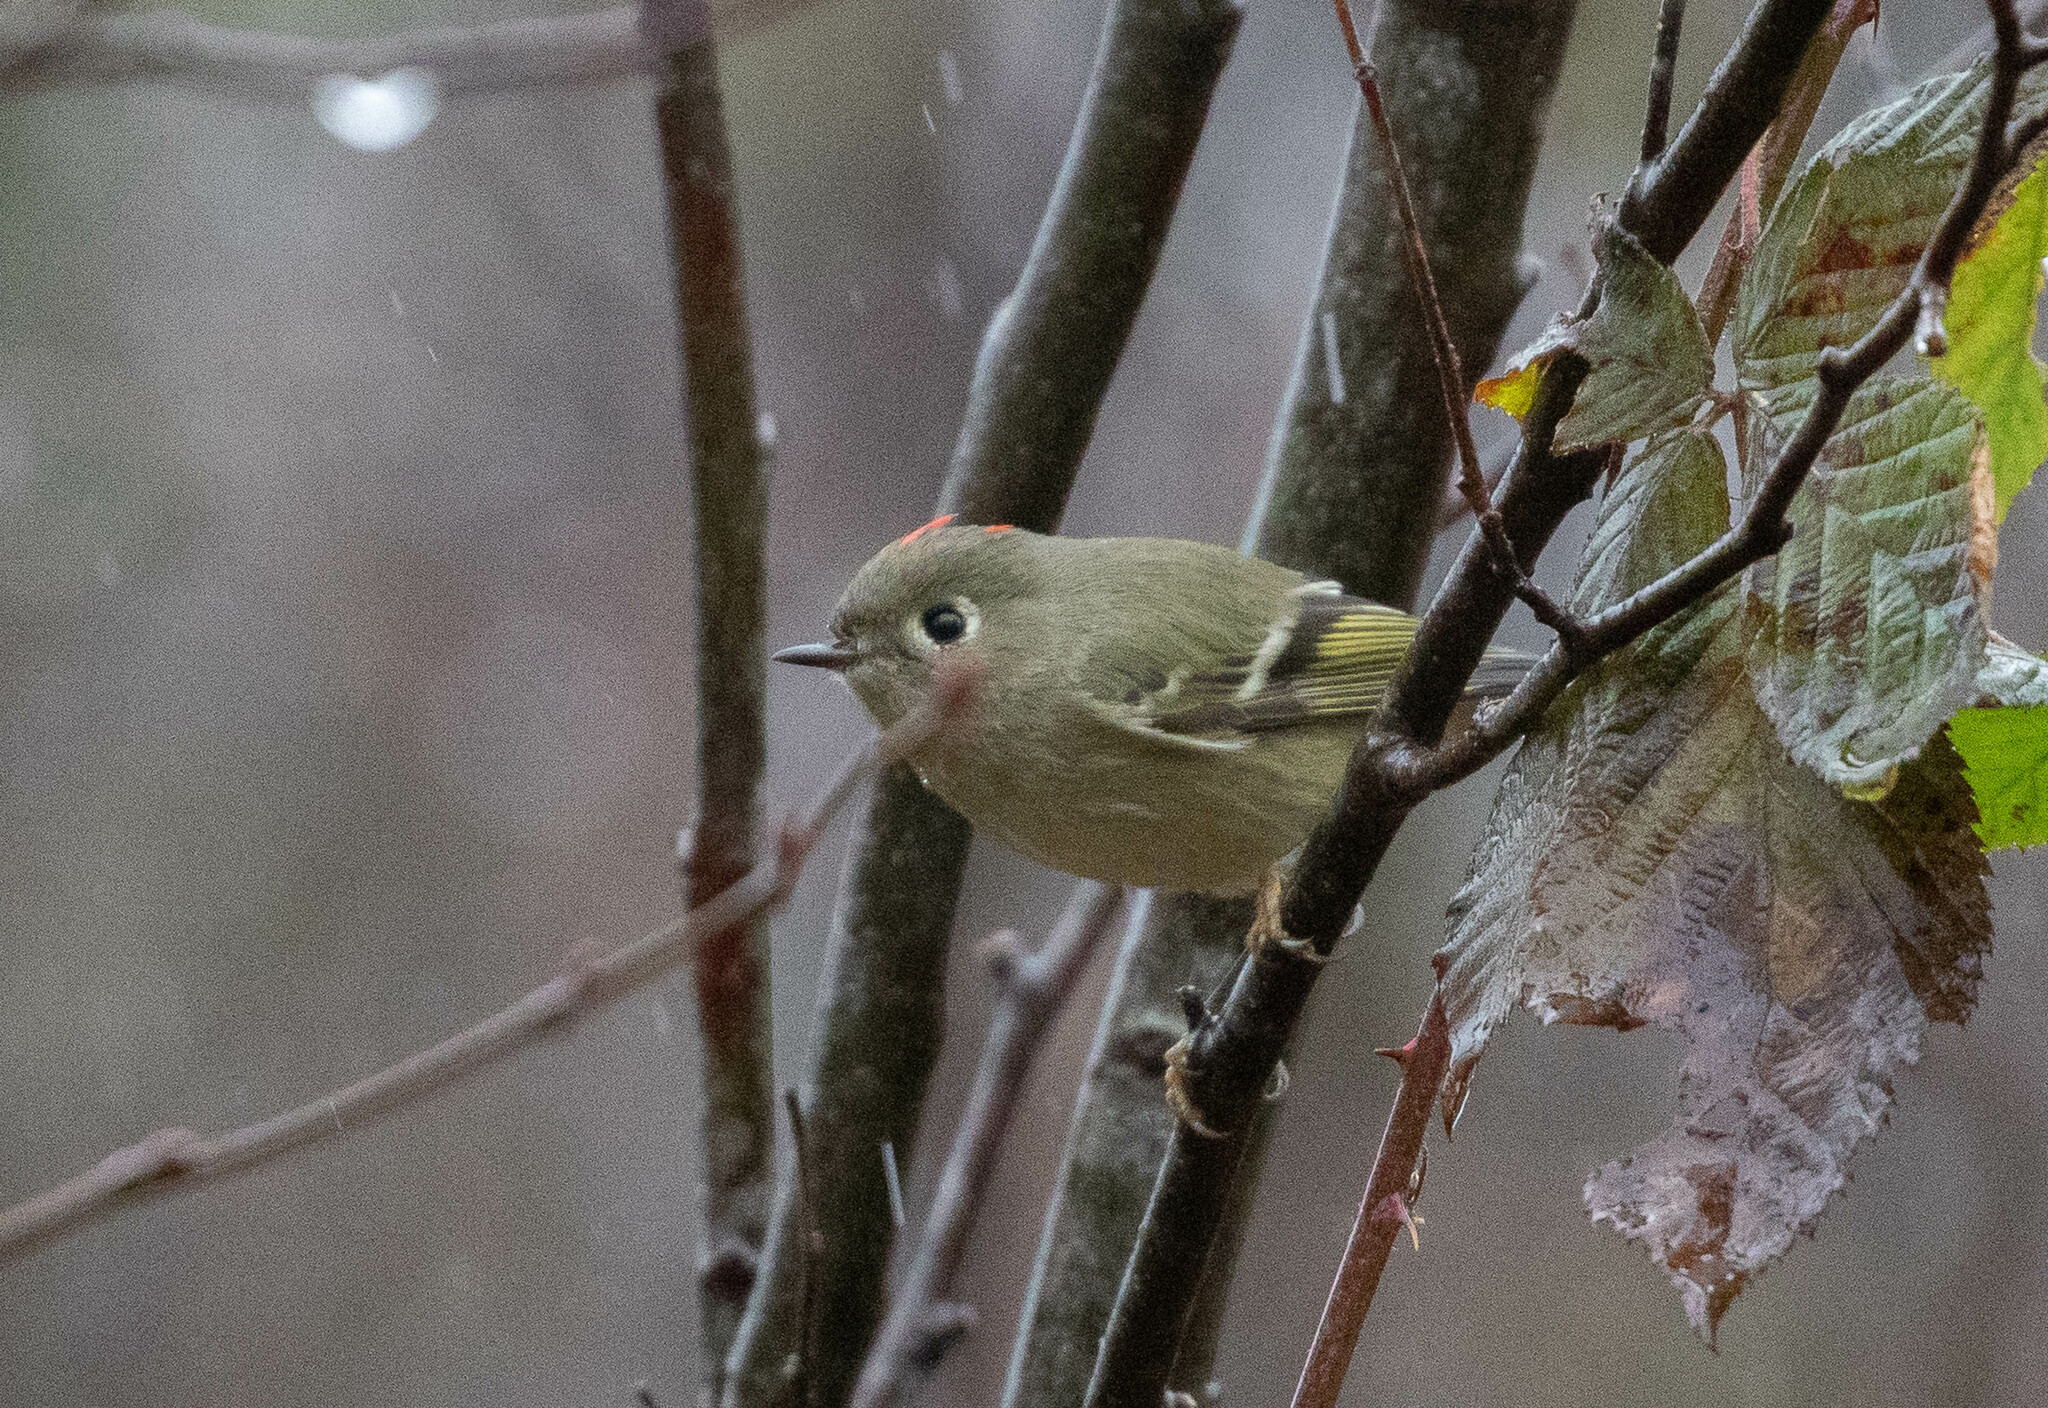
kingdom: Animalia
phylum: Chordata
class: Aves
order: Passeriformes
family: Regulidae
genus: Regulus
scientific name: Regulus calendula
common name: Ruby-crowned kinglet
